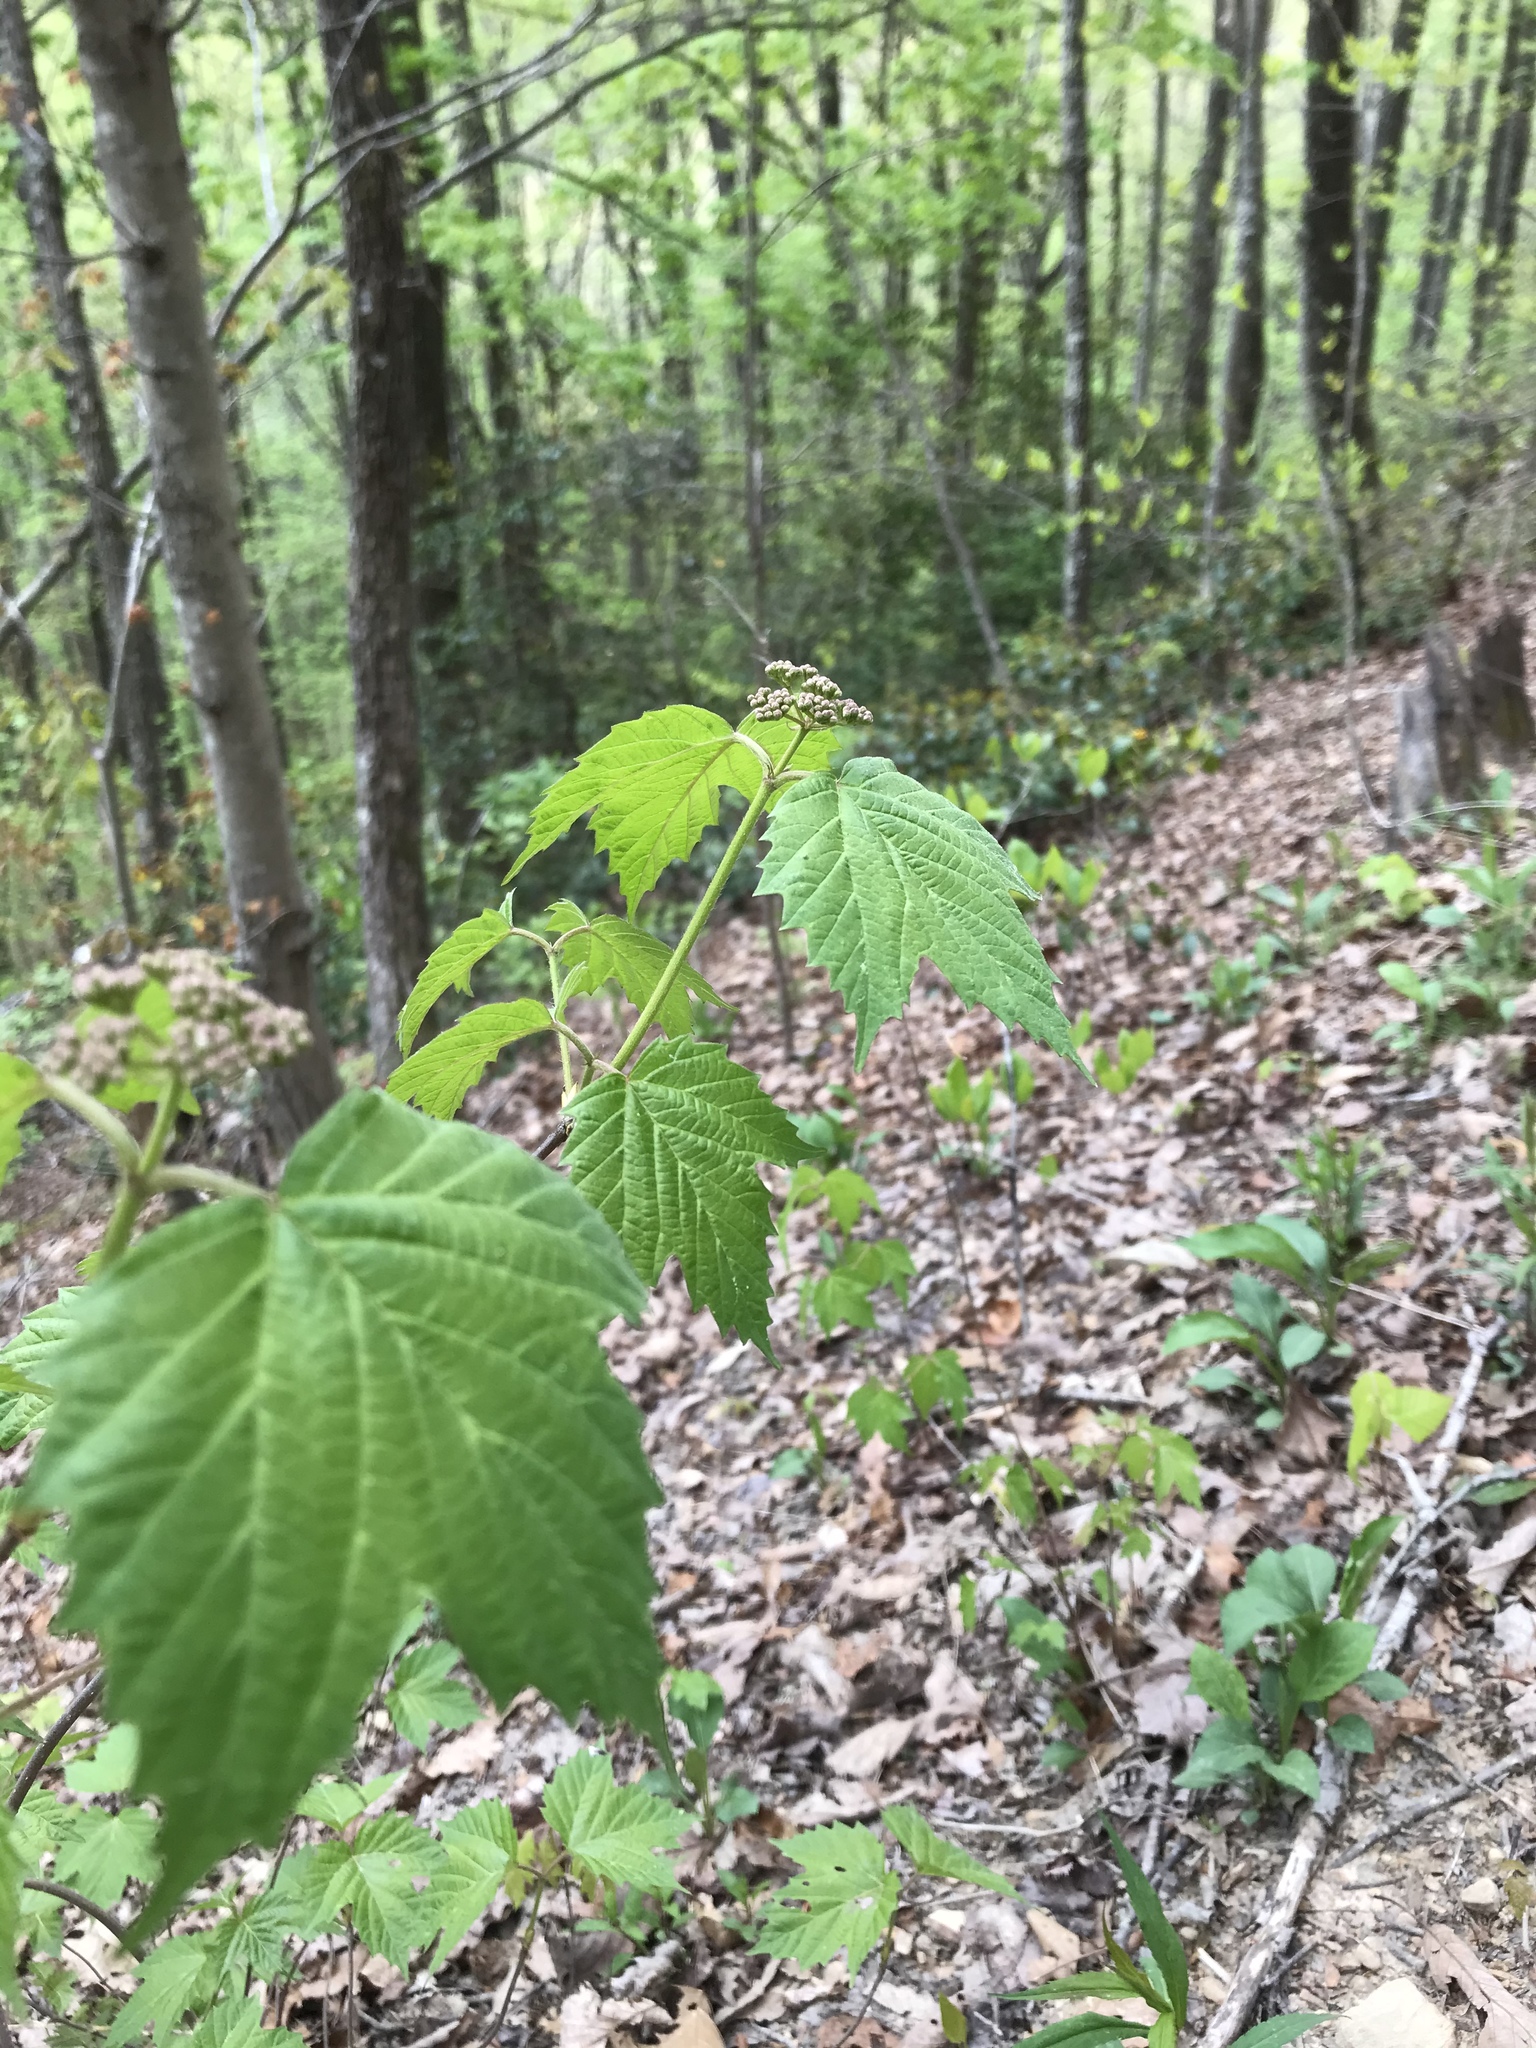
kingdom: Plantae
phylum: Tracheophyta
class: Magnoliopsida
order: Dipsacales
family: Viburnaceae
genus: Viburnum
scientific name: Viburnum acerifolium
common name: Dockmackie
